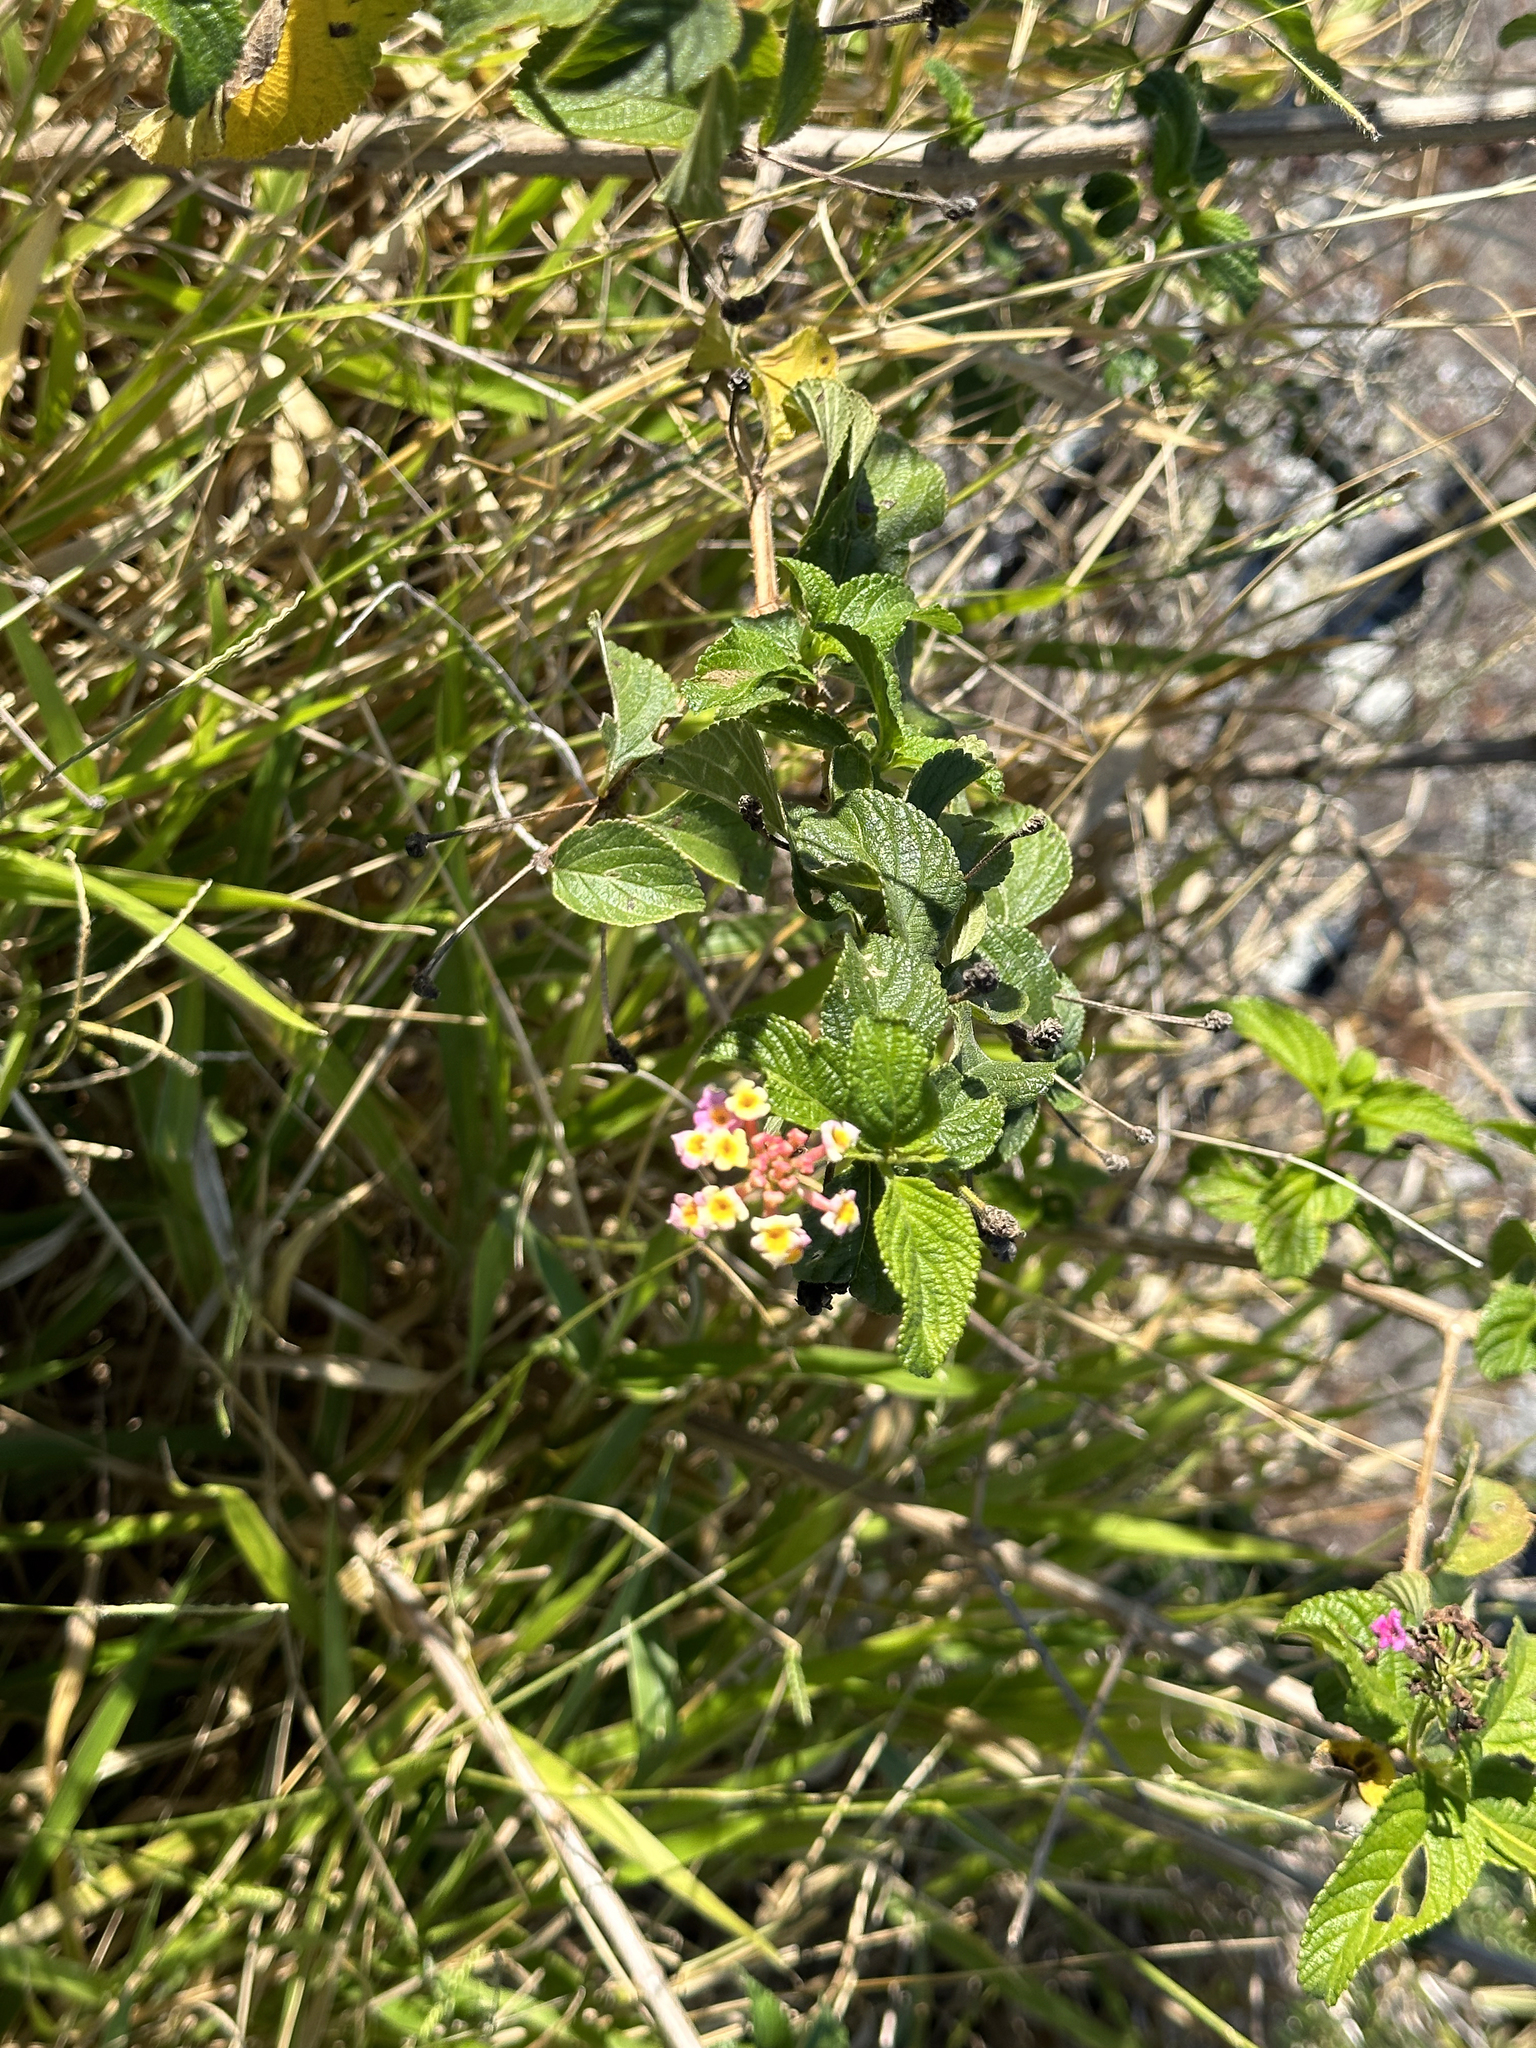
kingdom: Plantae
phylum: Tracheophyta
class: Magnoliopsida
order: Lamiales
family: Verbenaceae
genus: Lantana
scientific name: Lantana camara
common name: Lantana
